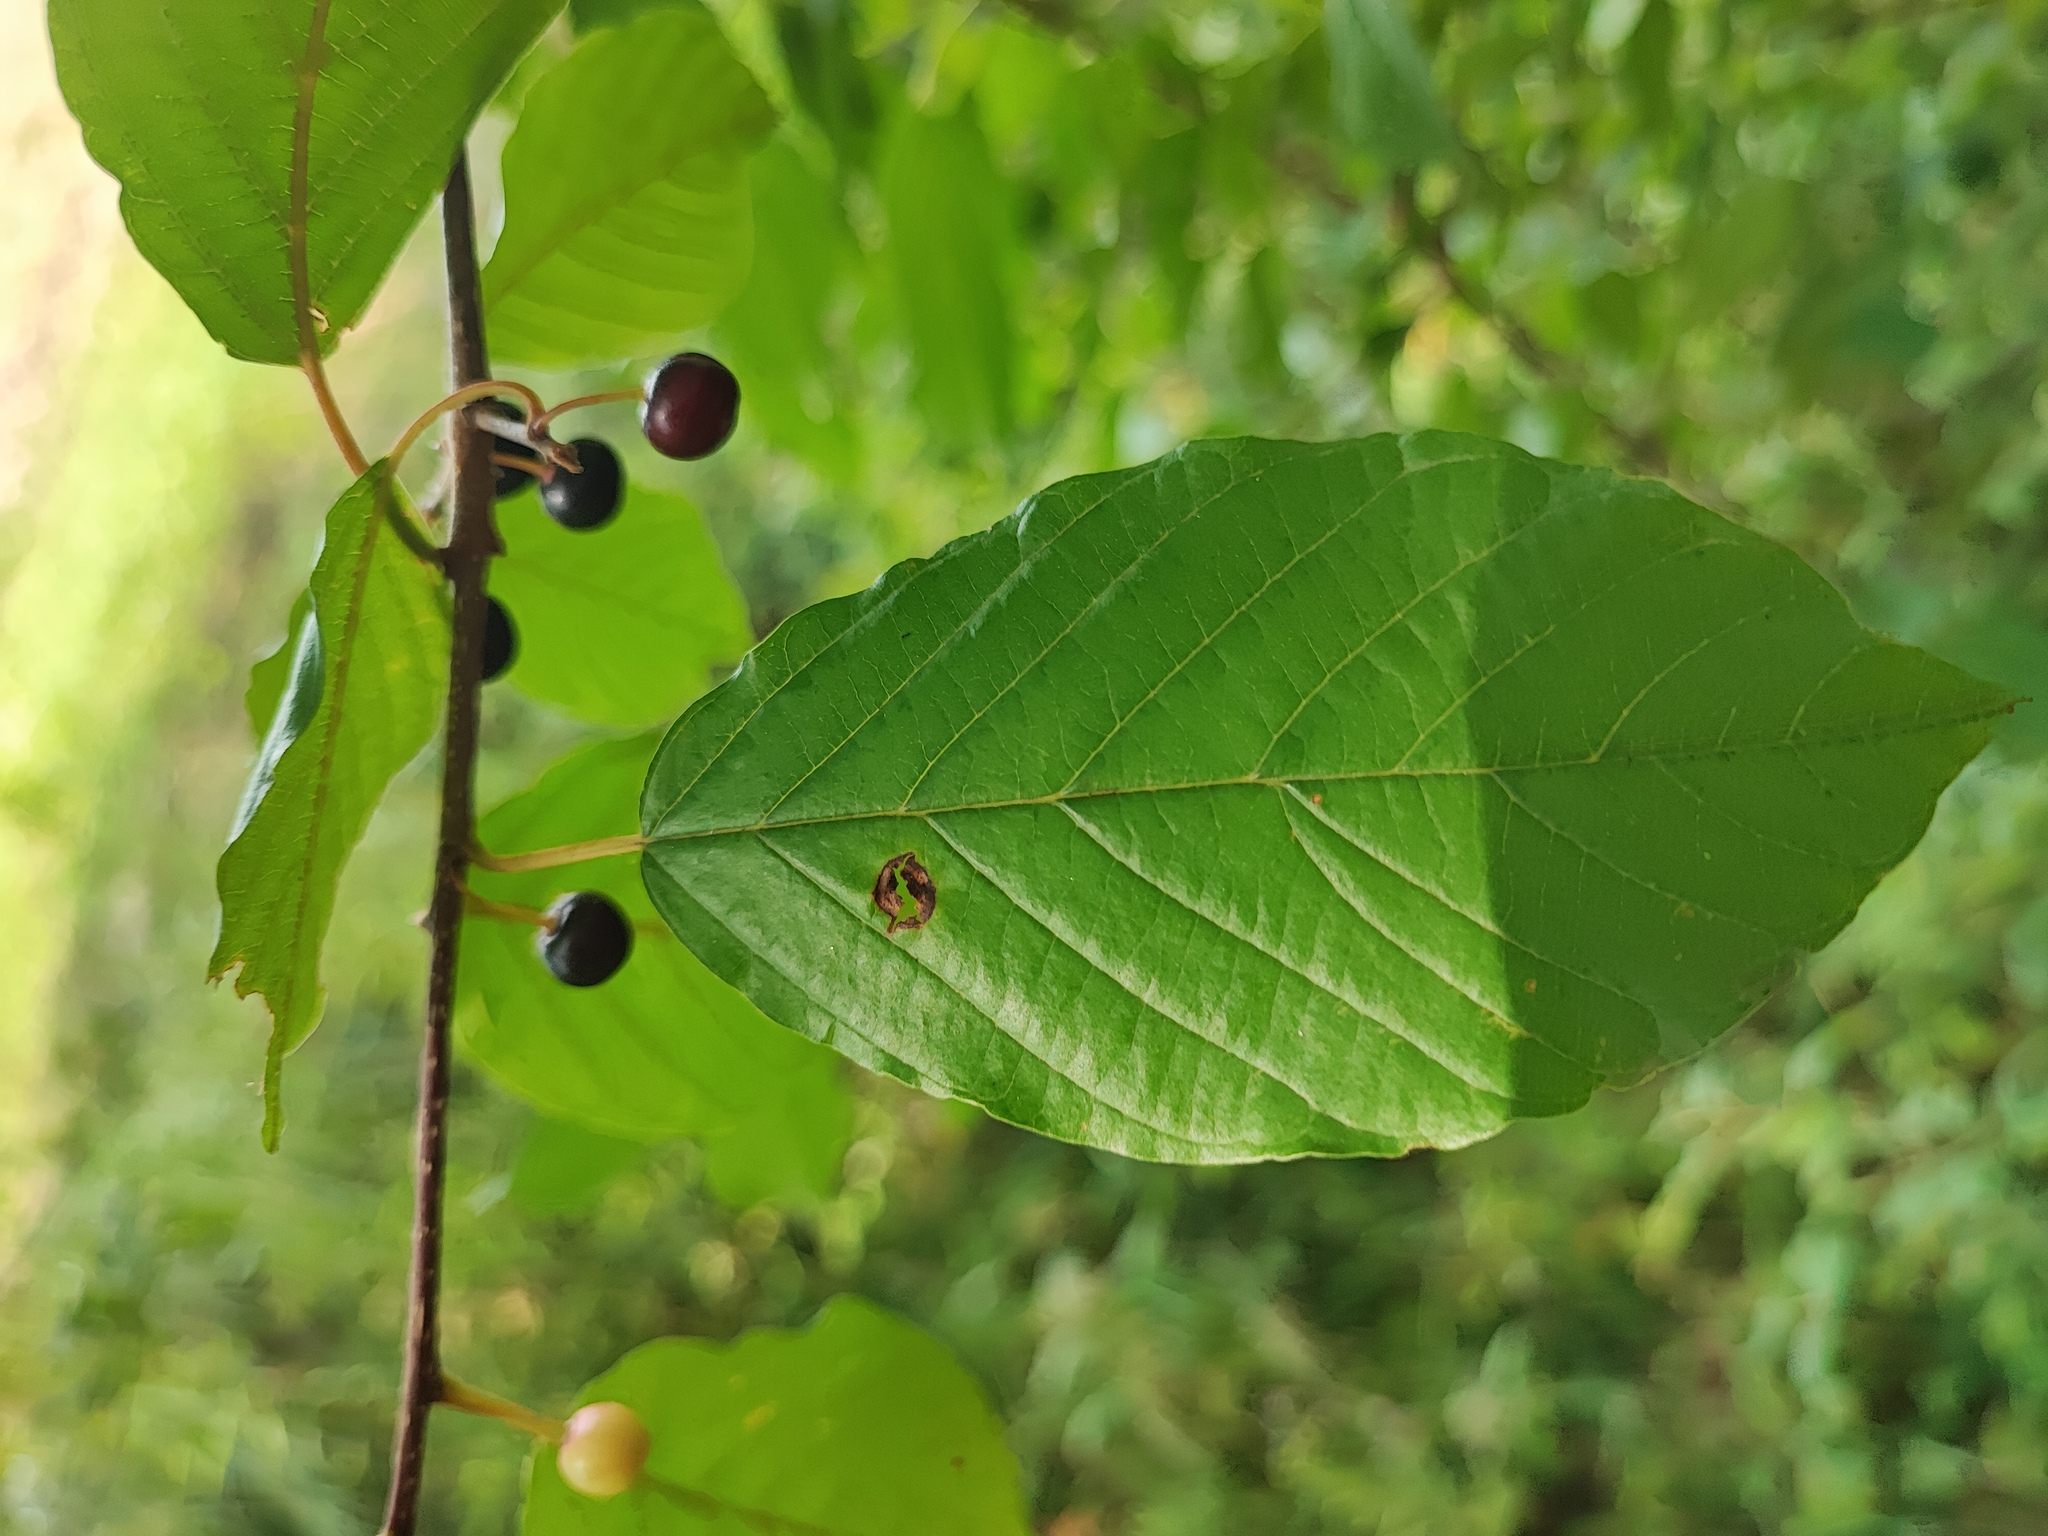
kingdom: Plantae
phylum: Tracheophyta
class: Magnoliopsida
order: Rosales
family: Rhamnaceae
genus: Frangula
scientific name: Frangula alnus
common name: Alder buckthorn
